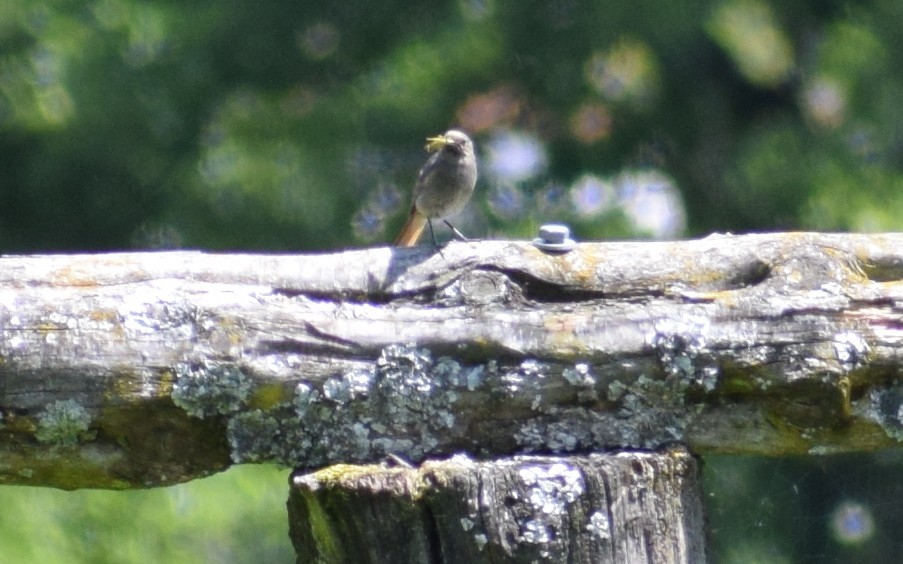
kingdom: Animalia
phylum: Chordata
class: Aves
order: Passeriformes
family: Muscicapidae
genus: Phoenicurus
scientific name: Phoenicurus ochruros
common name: Black redstart
